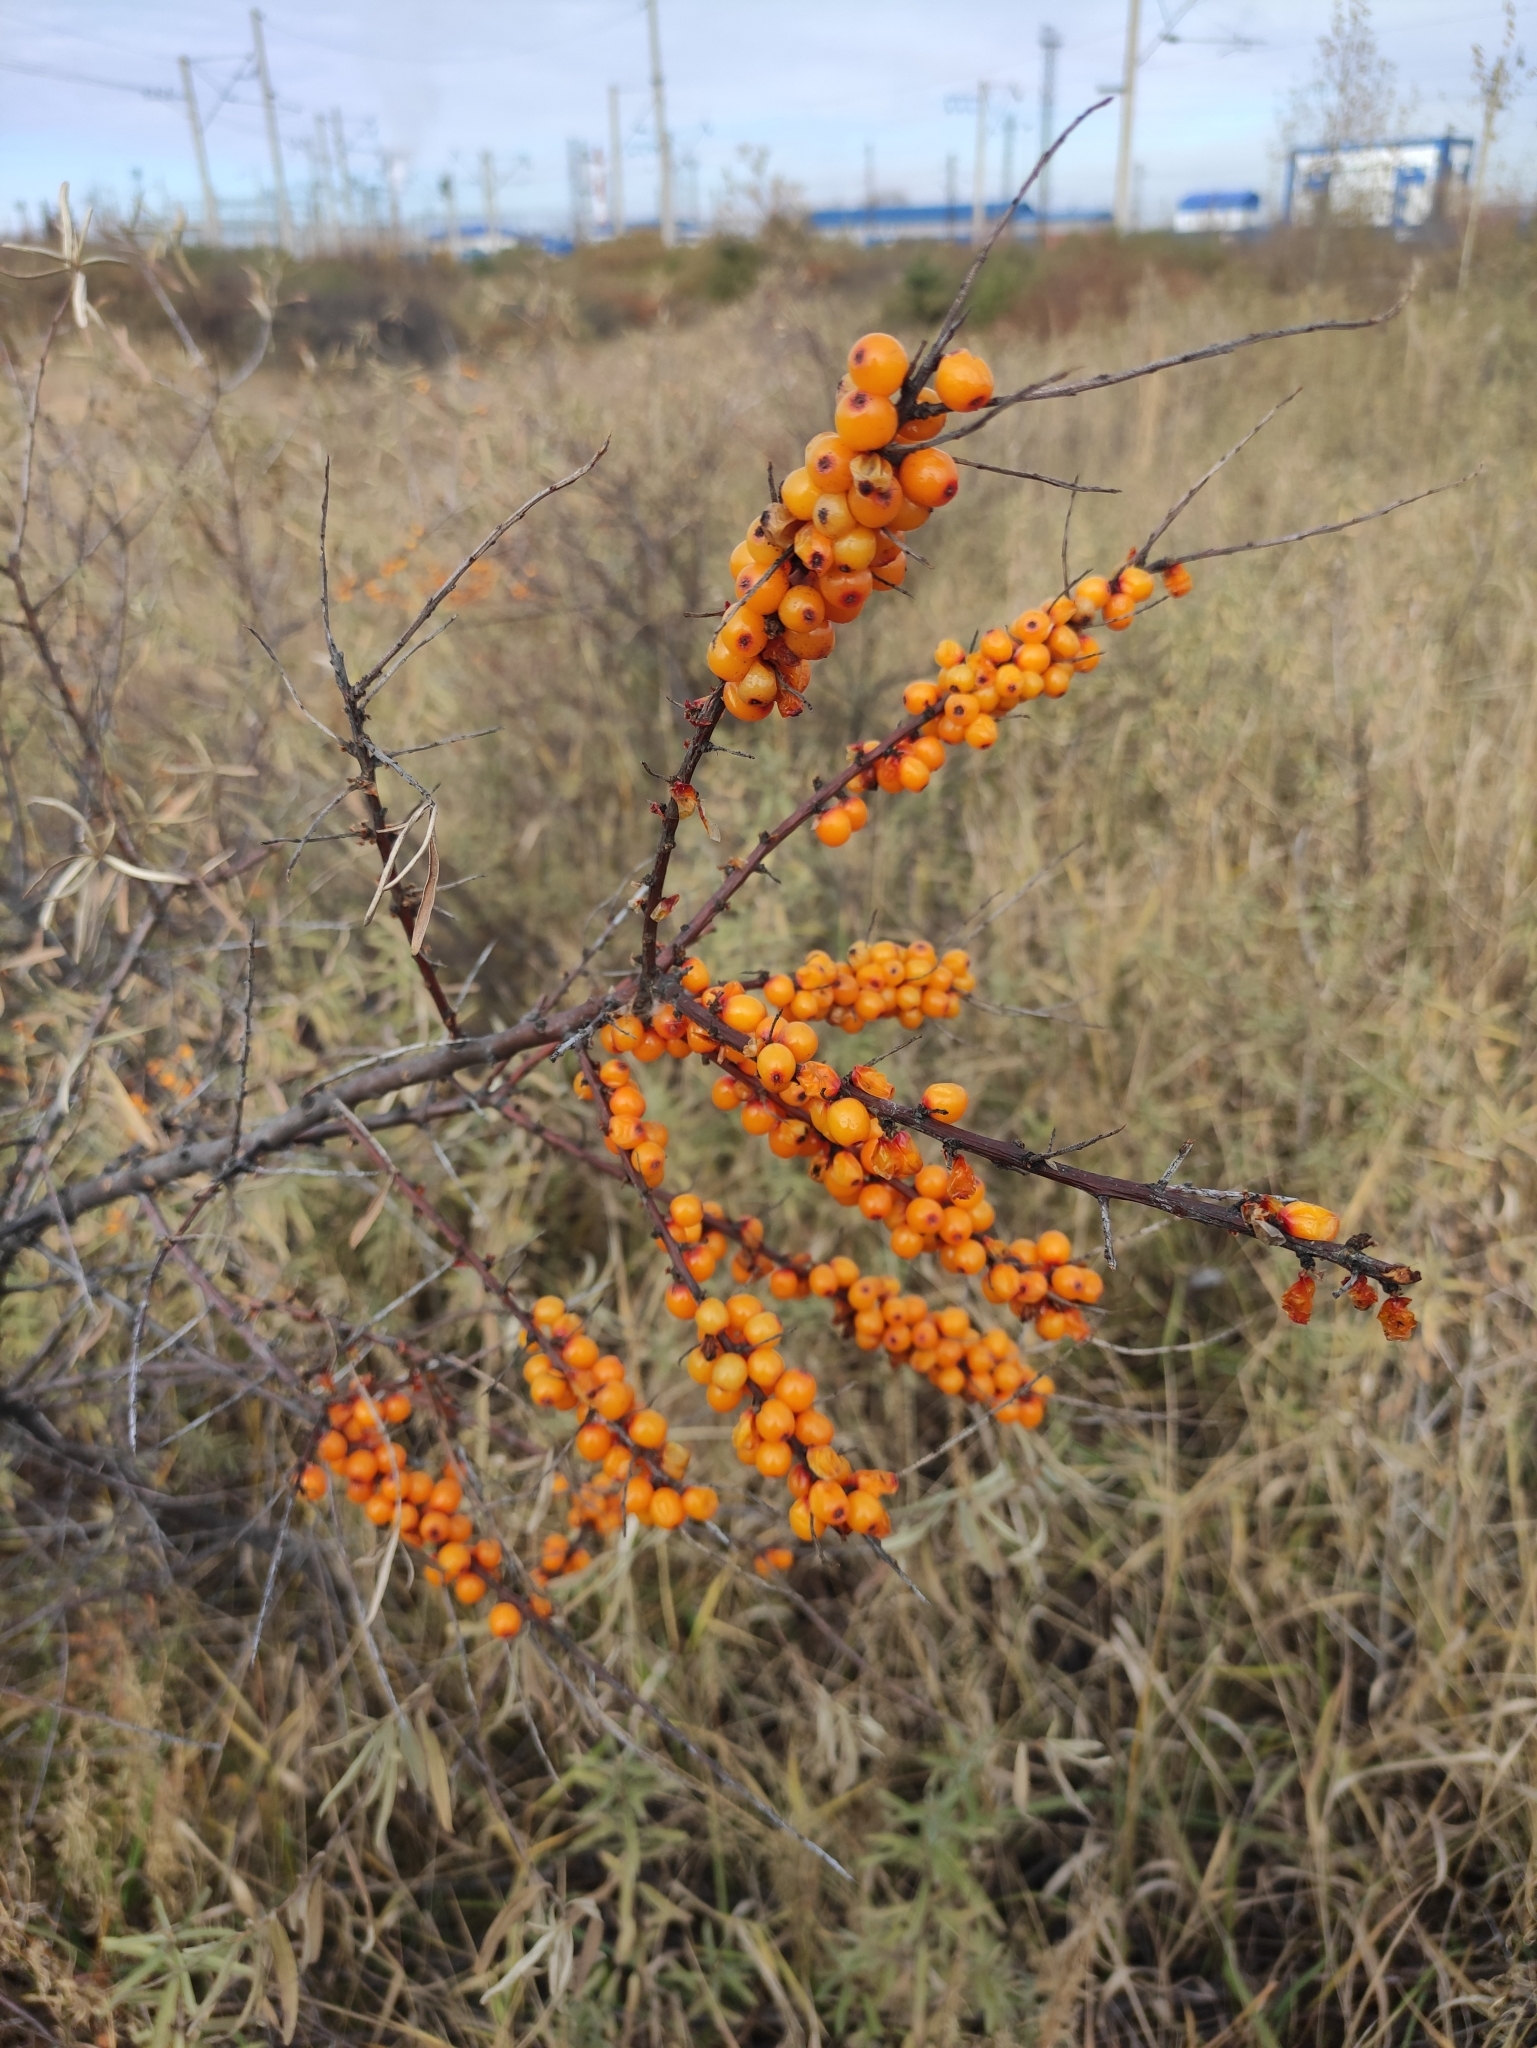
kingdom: Plantae
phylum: Tracheophyta
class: Magnoliopsida
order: Rosales
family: Elaeagnaceae
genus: Hippophae
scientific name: Hippophae rhamnoides
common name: Sea-buckthorn
